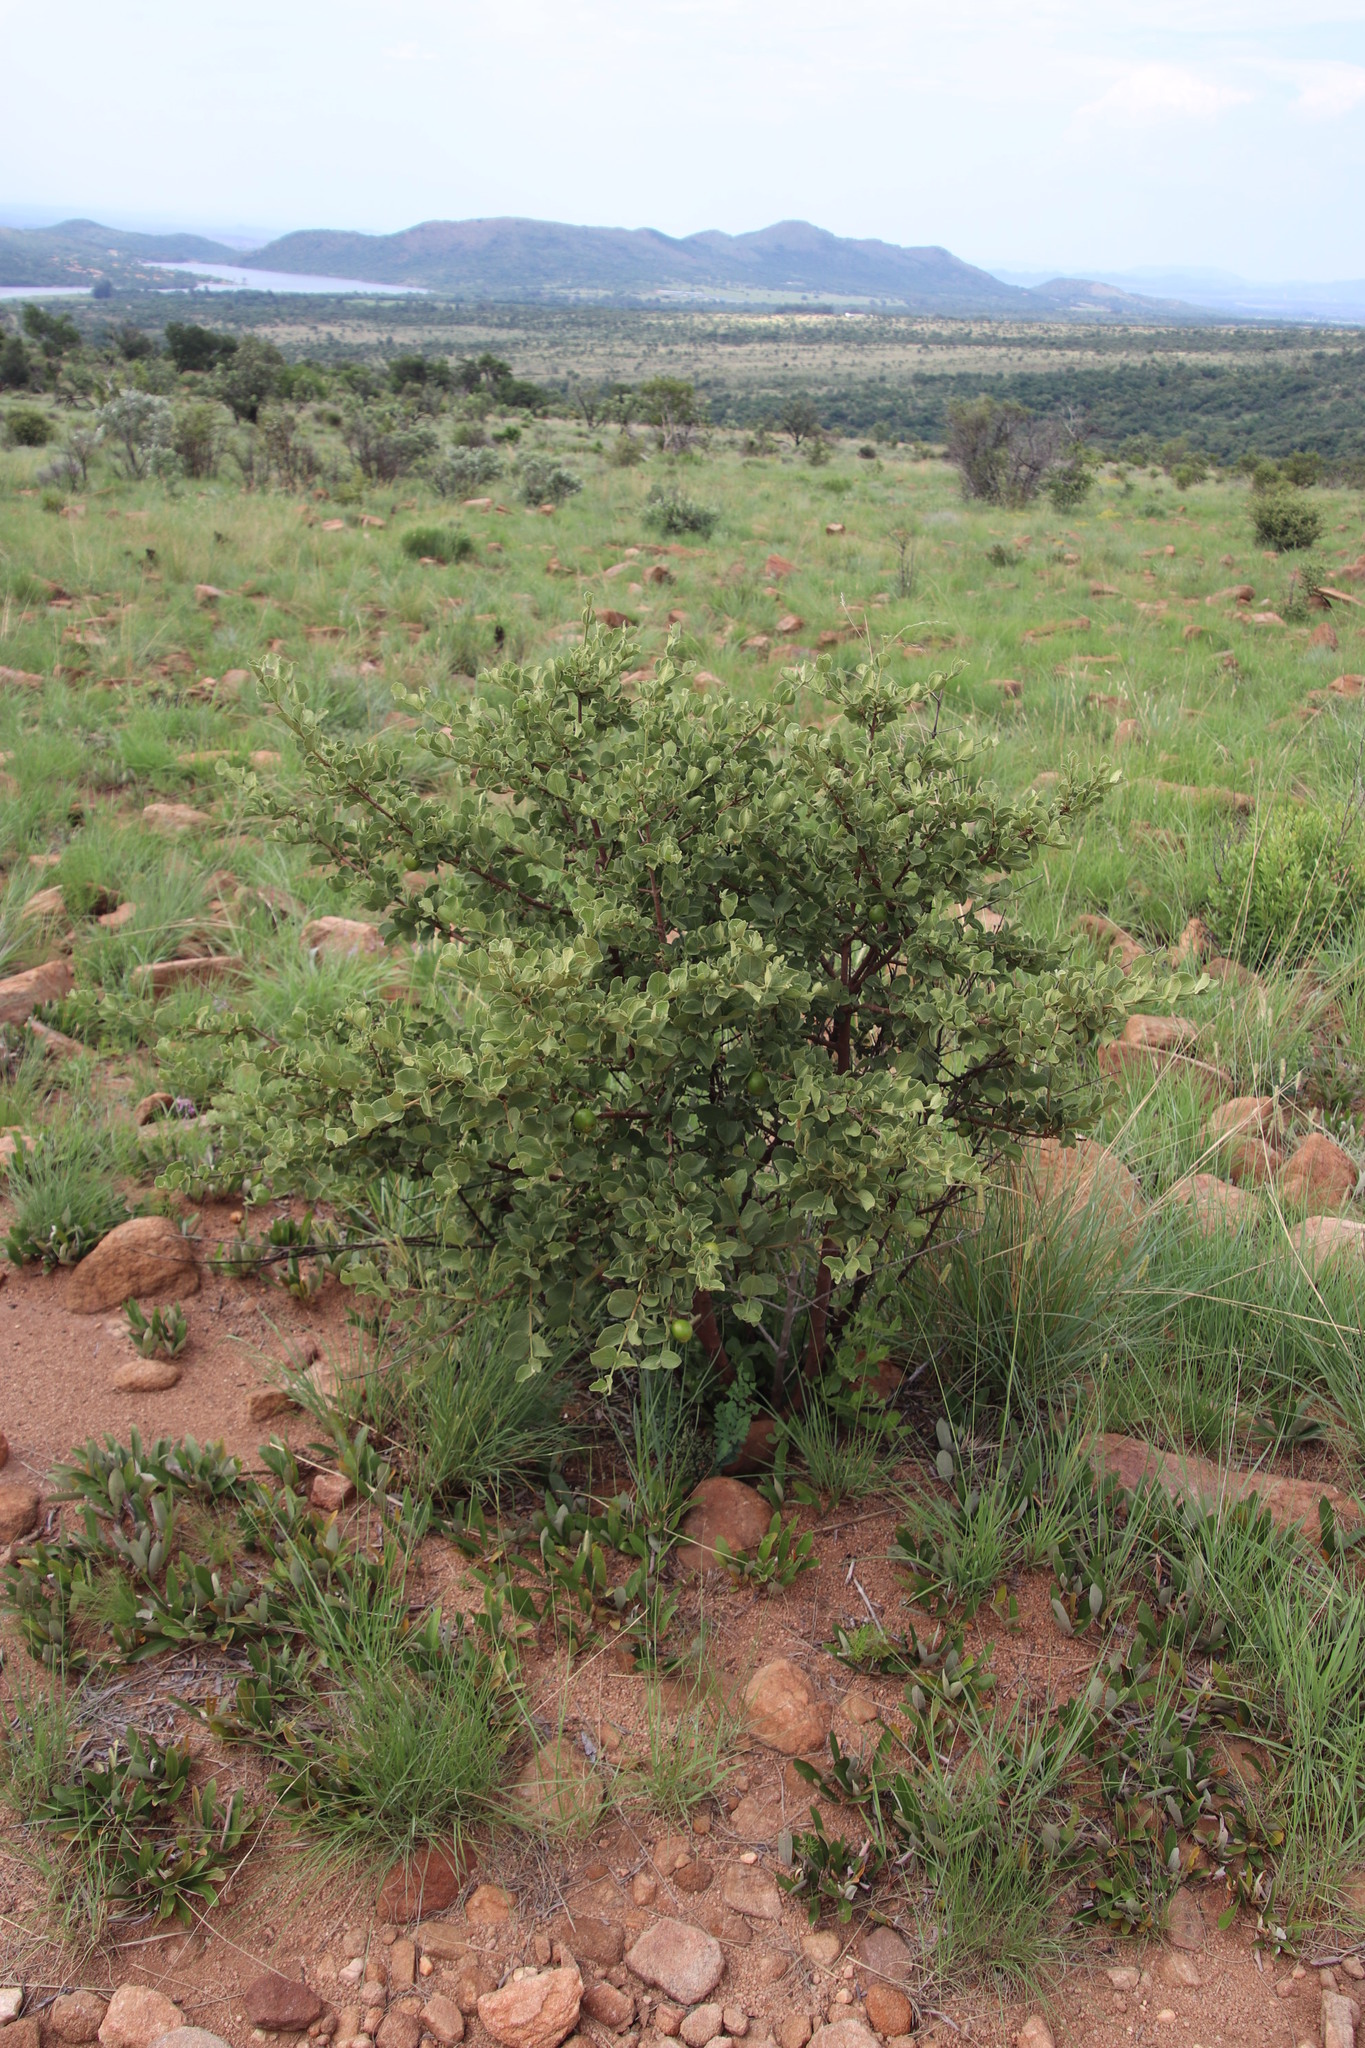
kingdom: Plantae
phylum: Tracheophyta
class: Magnoliopsida
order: Gentianales
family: Rubiaceae
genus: Vangueria
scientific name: Vangueria parvifolia
